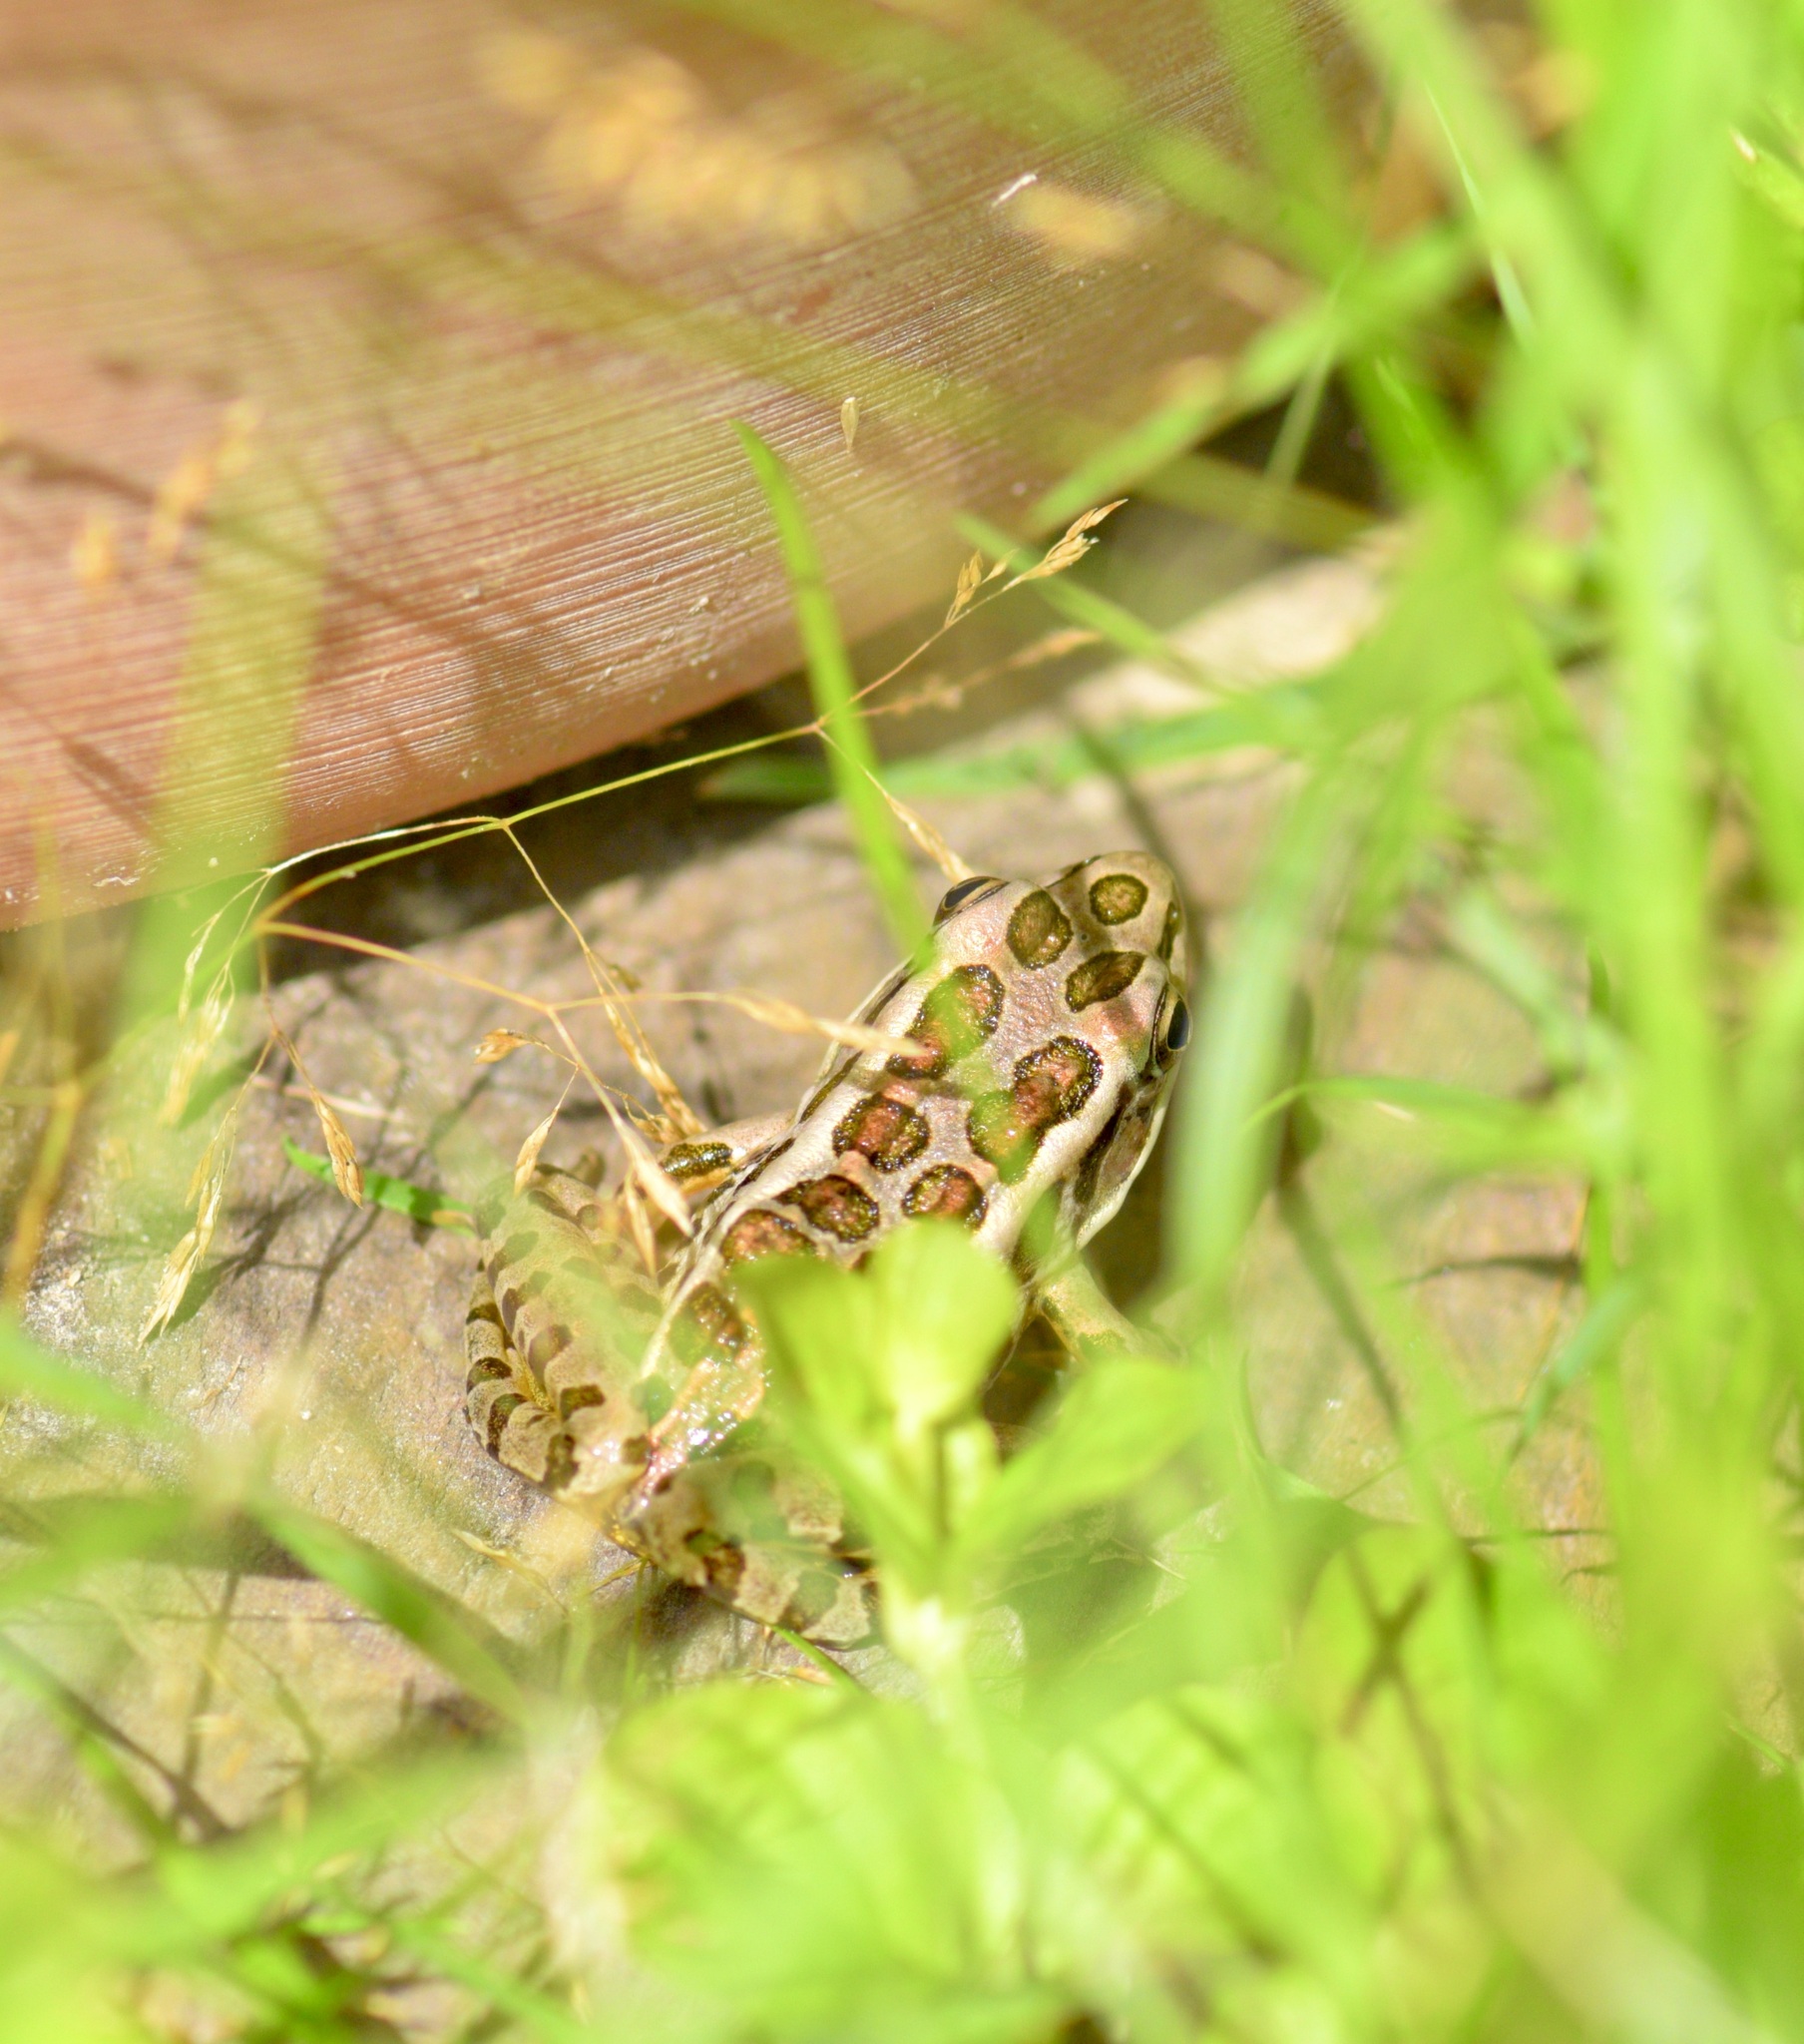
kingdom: Animalia
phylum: Chordata
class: Amphibia
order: Anura
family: Ranidae
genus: Lithobates
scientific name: Lithobates palustris
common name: Pickerel frog
